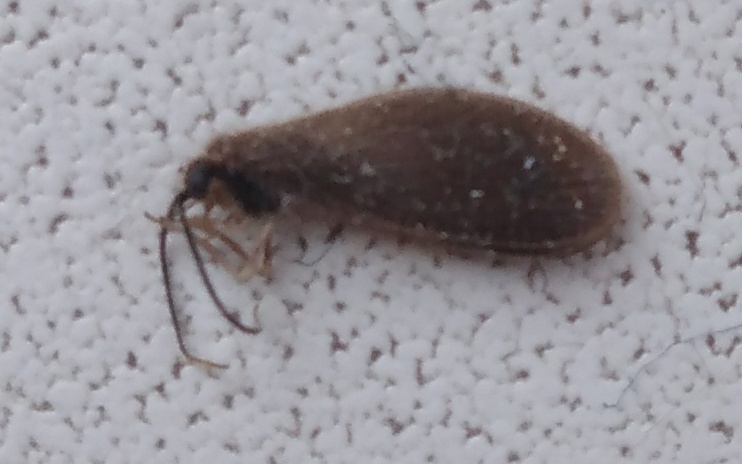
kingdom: Animalia
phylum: Arthropoda
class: Insecta
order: Neuroptera
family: Sisyridae
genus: Sisyra
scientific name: Sisyra nigra
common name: Black spongillafly
